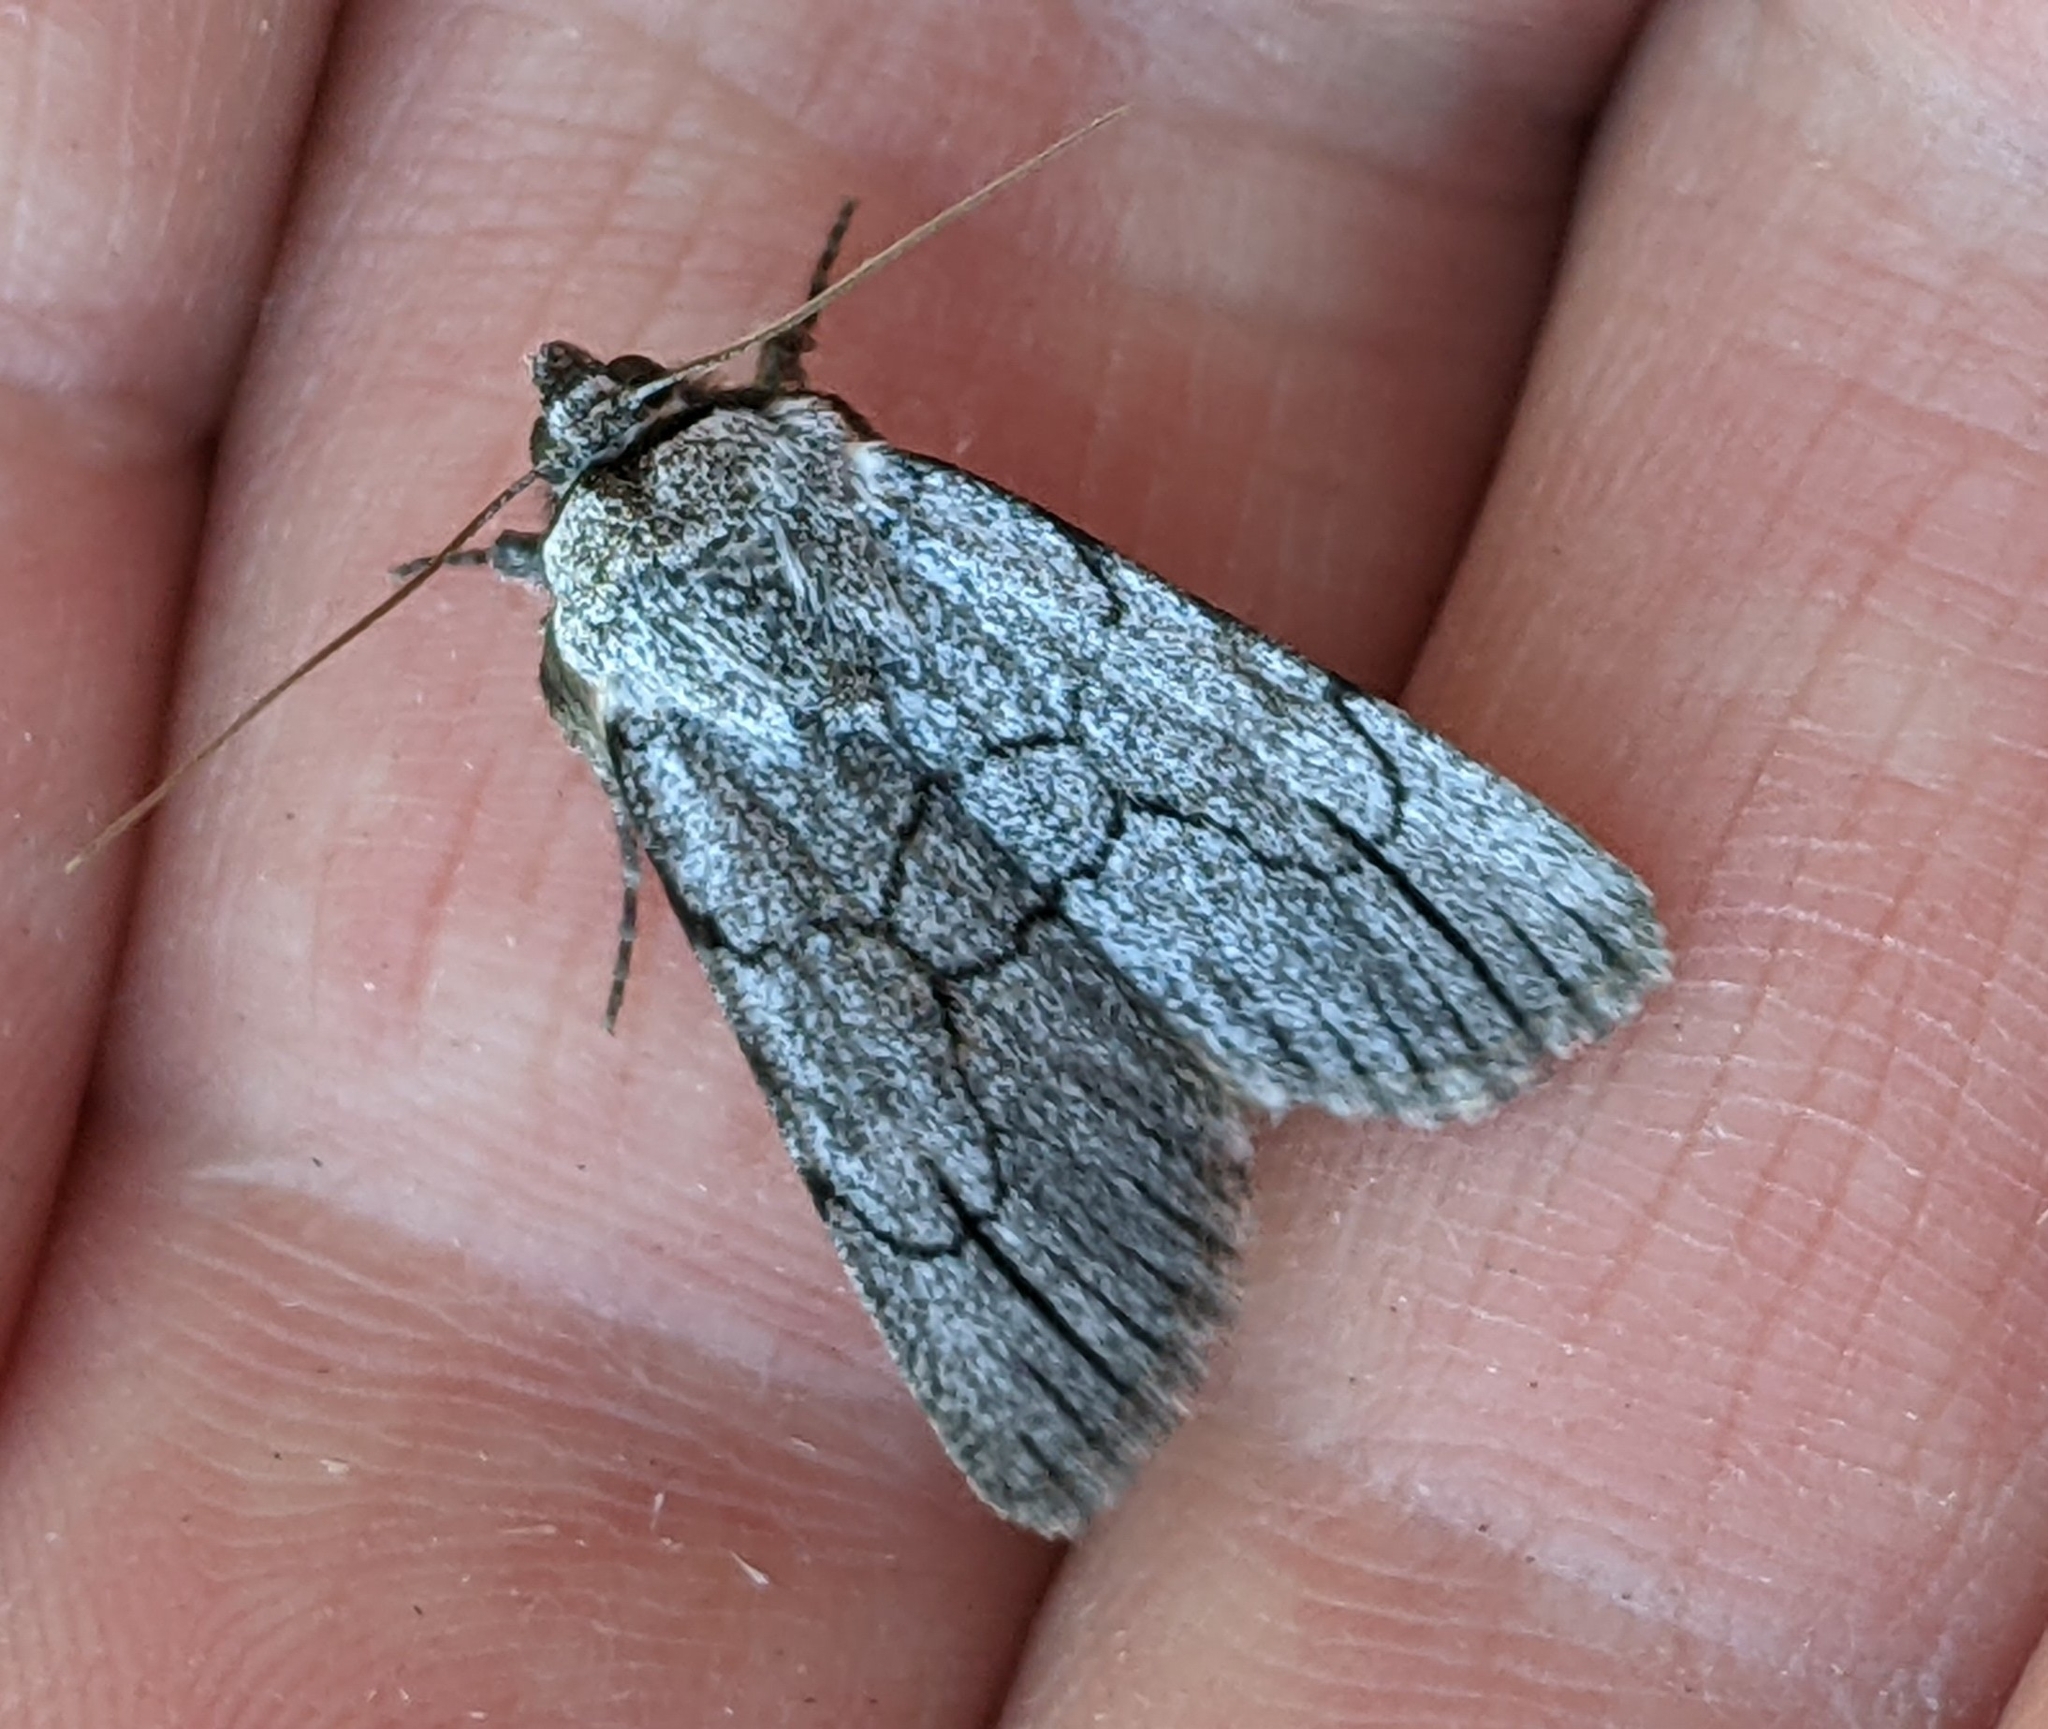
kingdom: Animalia
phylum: Arthropoda
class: Insecta
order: Lepidoptera
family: Noctuidae
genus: Sympistis
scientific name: Sympistis semicollaris
